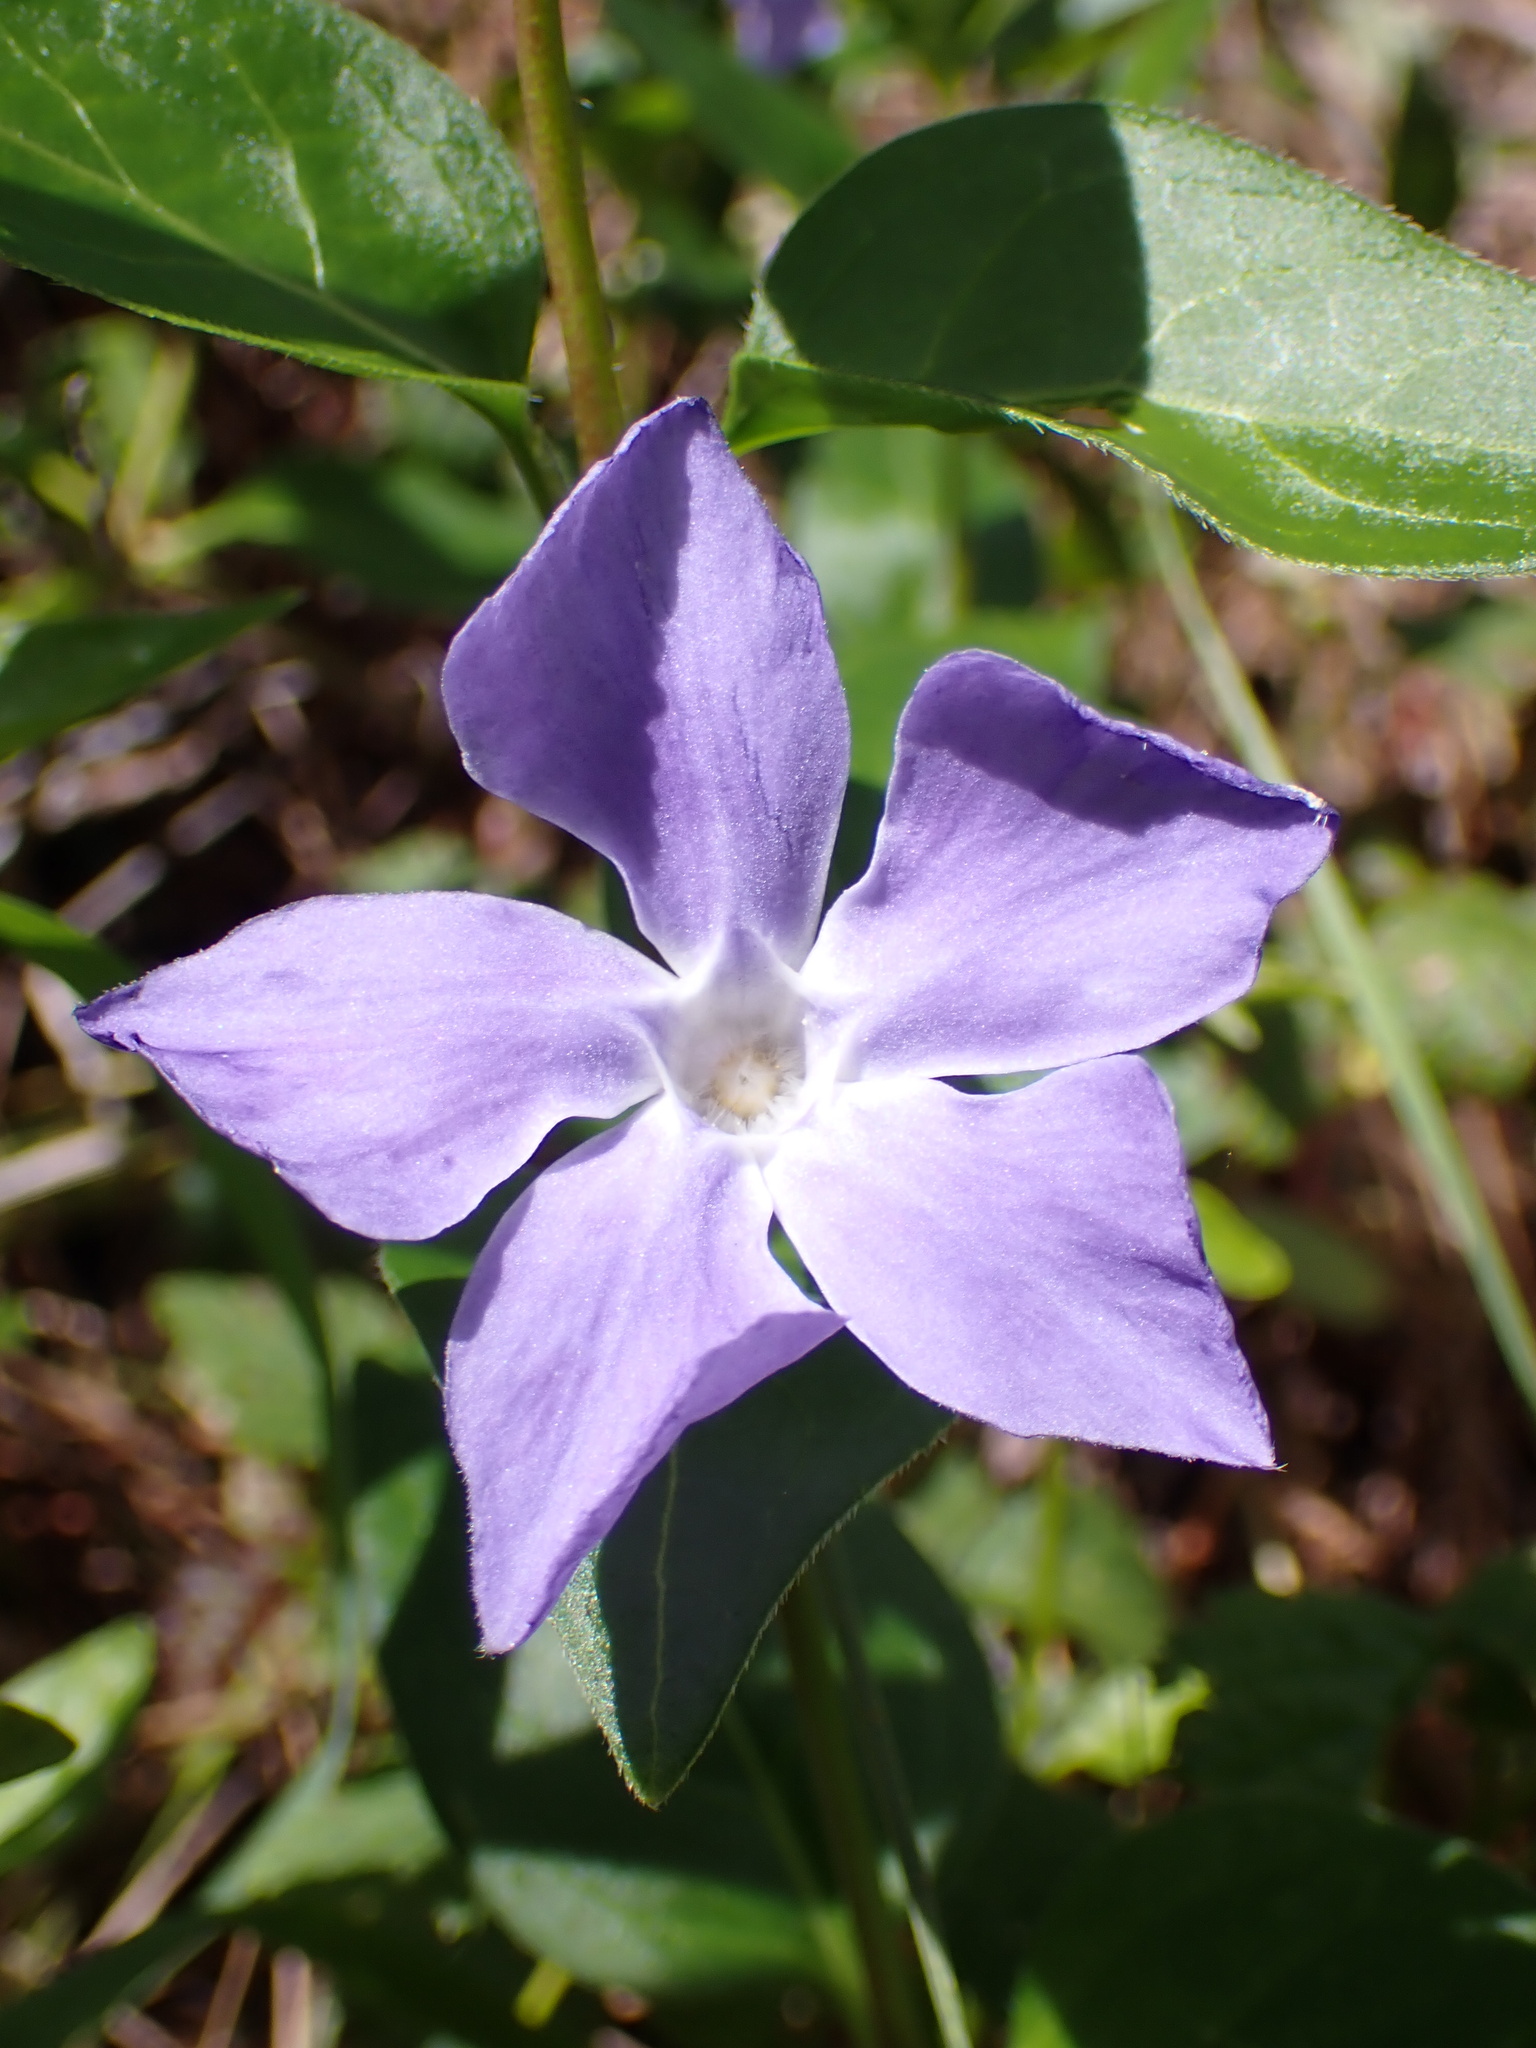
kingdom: Plantae
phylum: Tracheophyta
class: Magnoliopsida
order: Gentianales
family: Apocynaceae
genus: Vinca
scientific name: Vinca major
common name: Greater periwinkle
